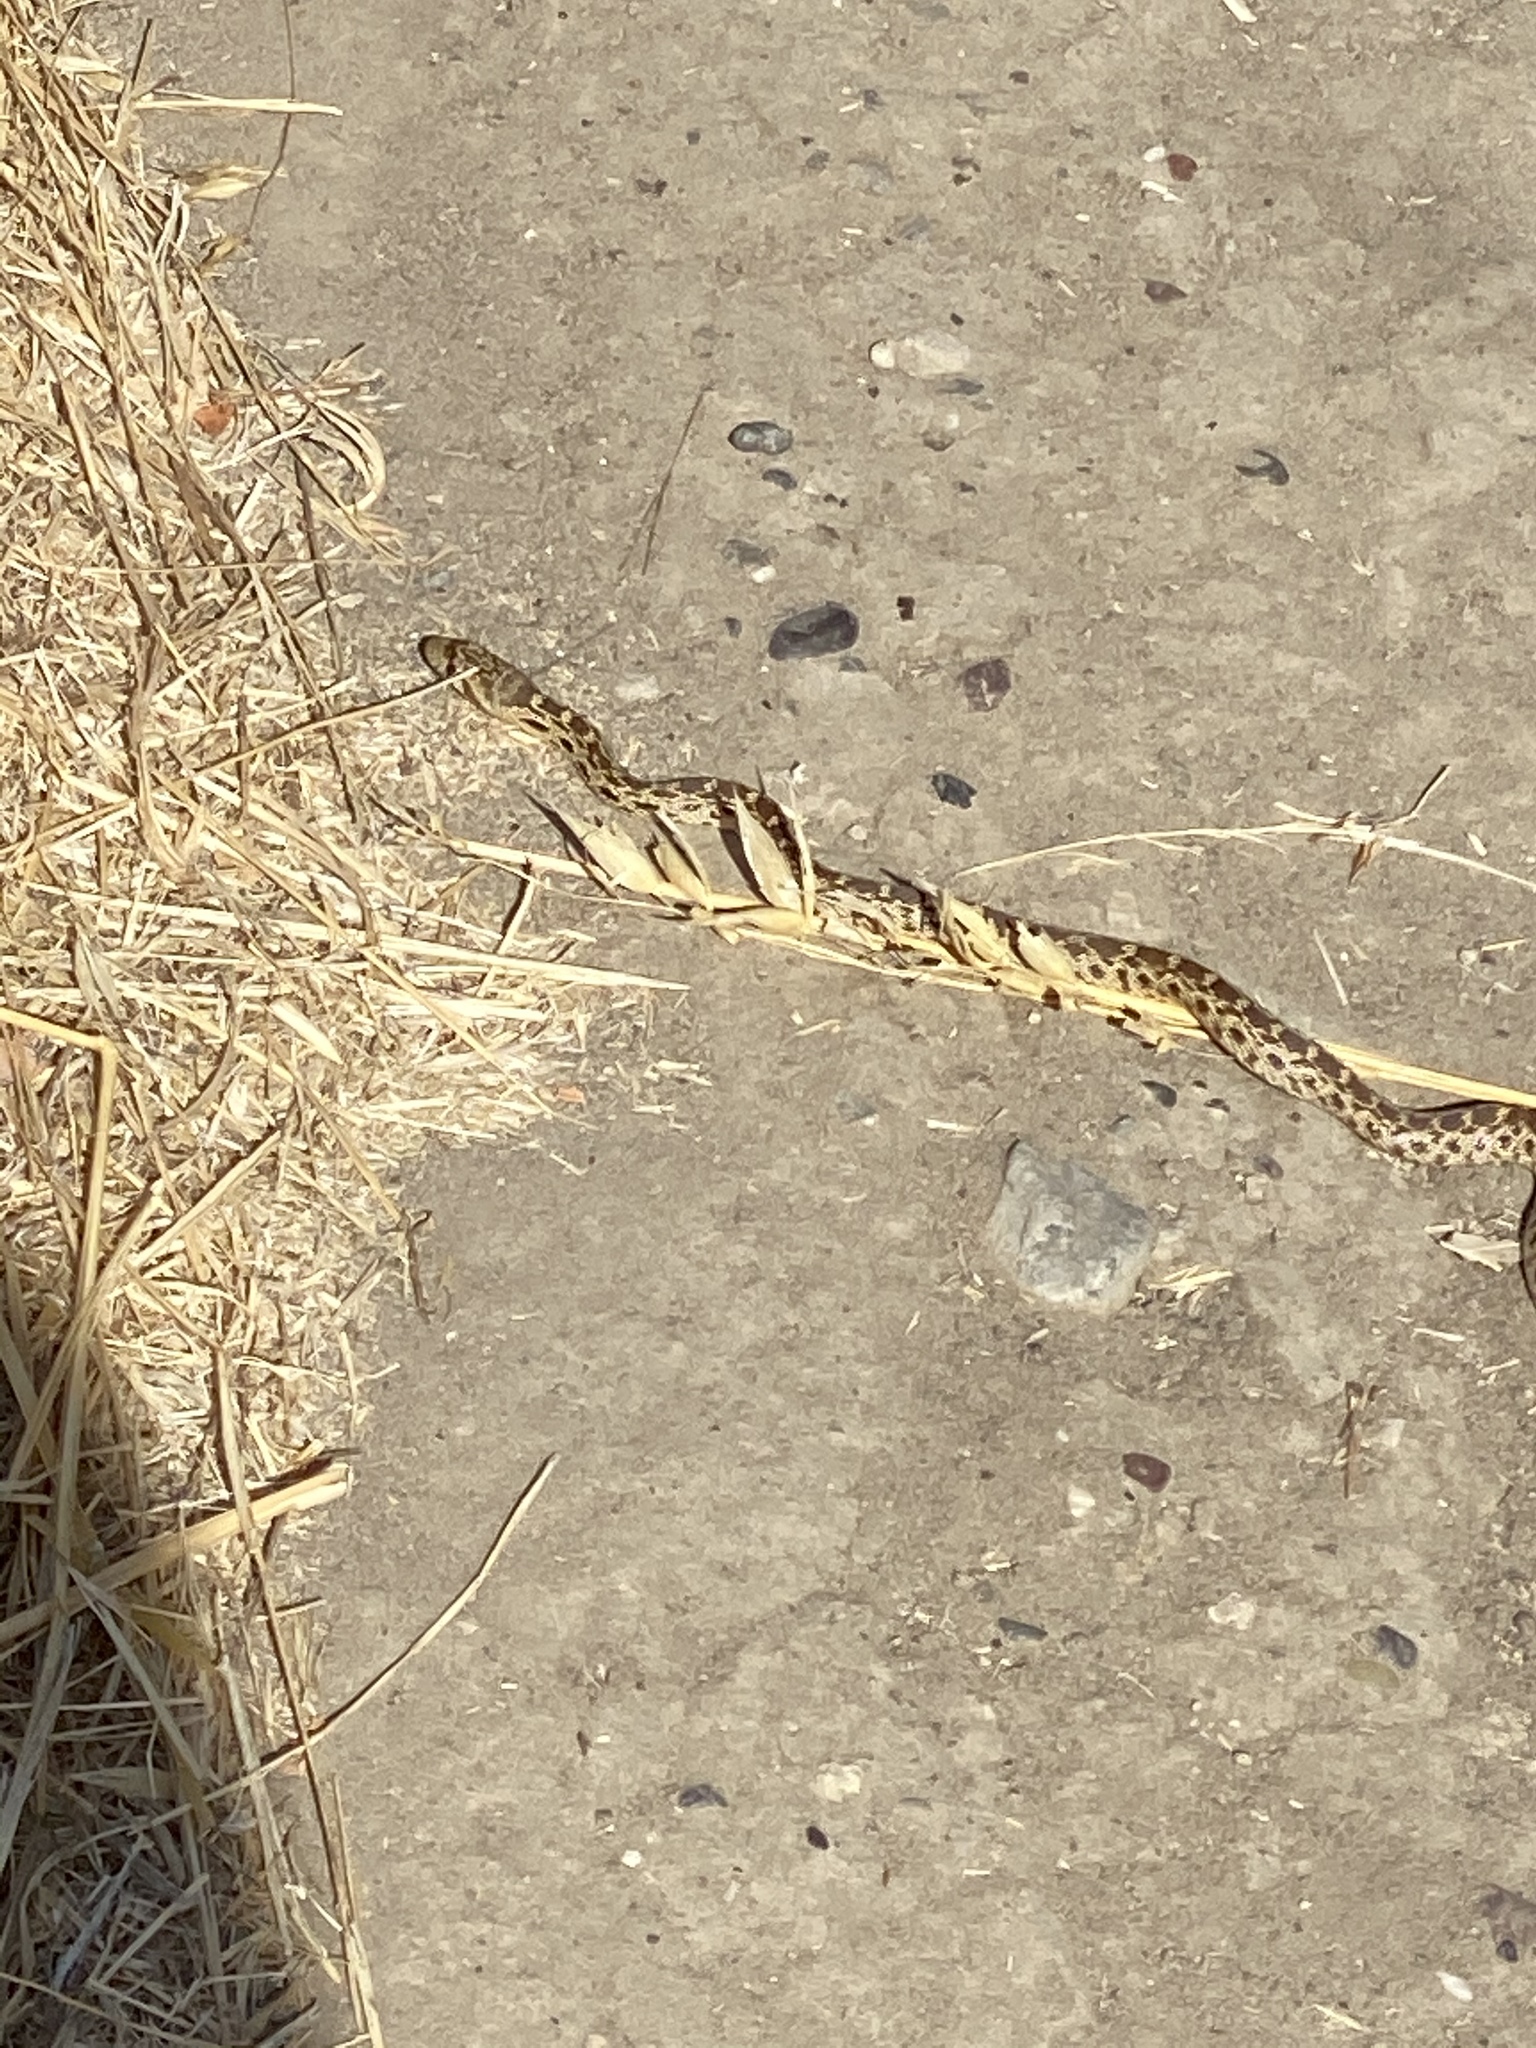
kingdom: Animalia
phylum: Chordata
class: Squamata
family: Colubridae
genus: Pituophis
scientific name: Pituophis catenifer
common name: Gopher snake
